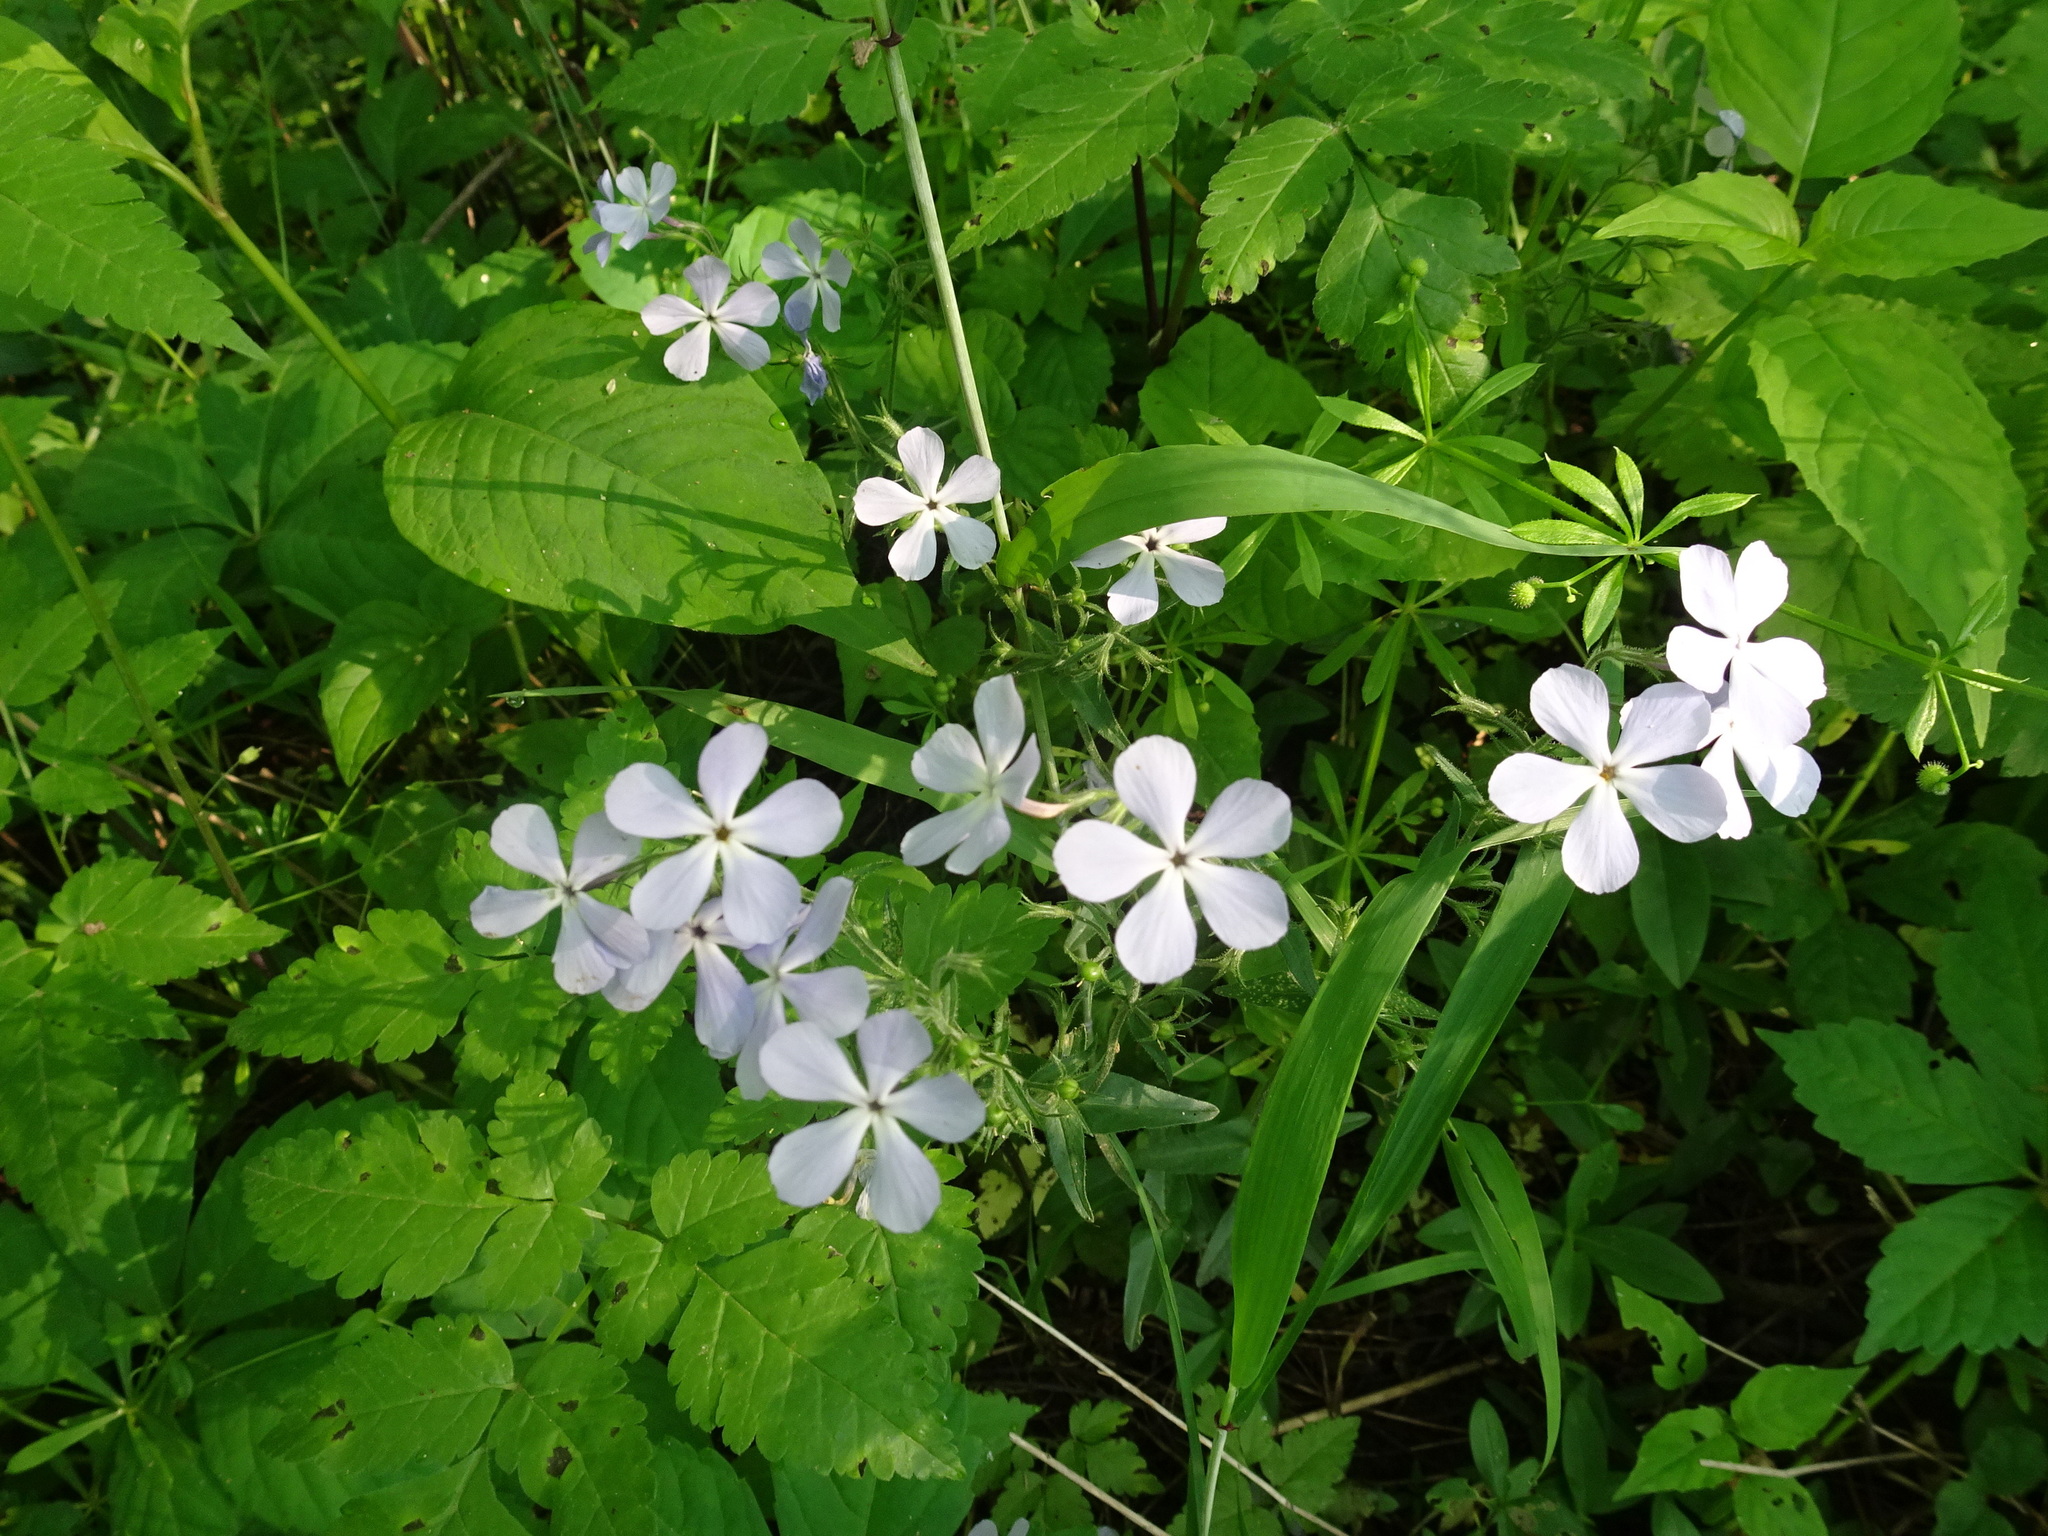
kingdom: Plantae
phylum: Tracheophyta
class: Magnoliopsida
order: Ericales
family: Polemoniaceae
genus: Phlox
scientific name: Phlox divaricata
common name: Blue phlox
